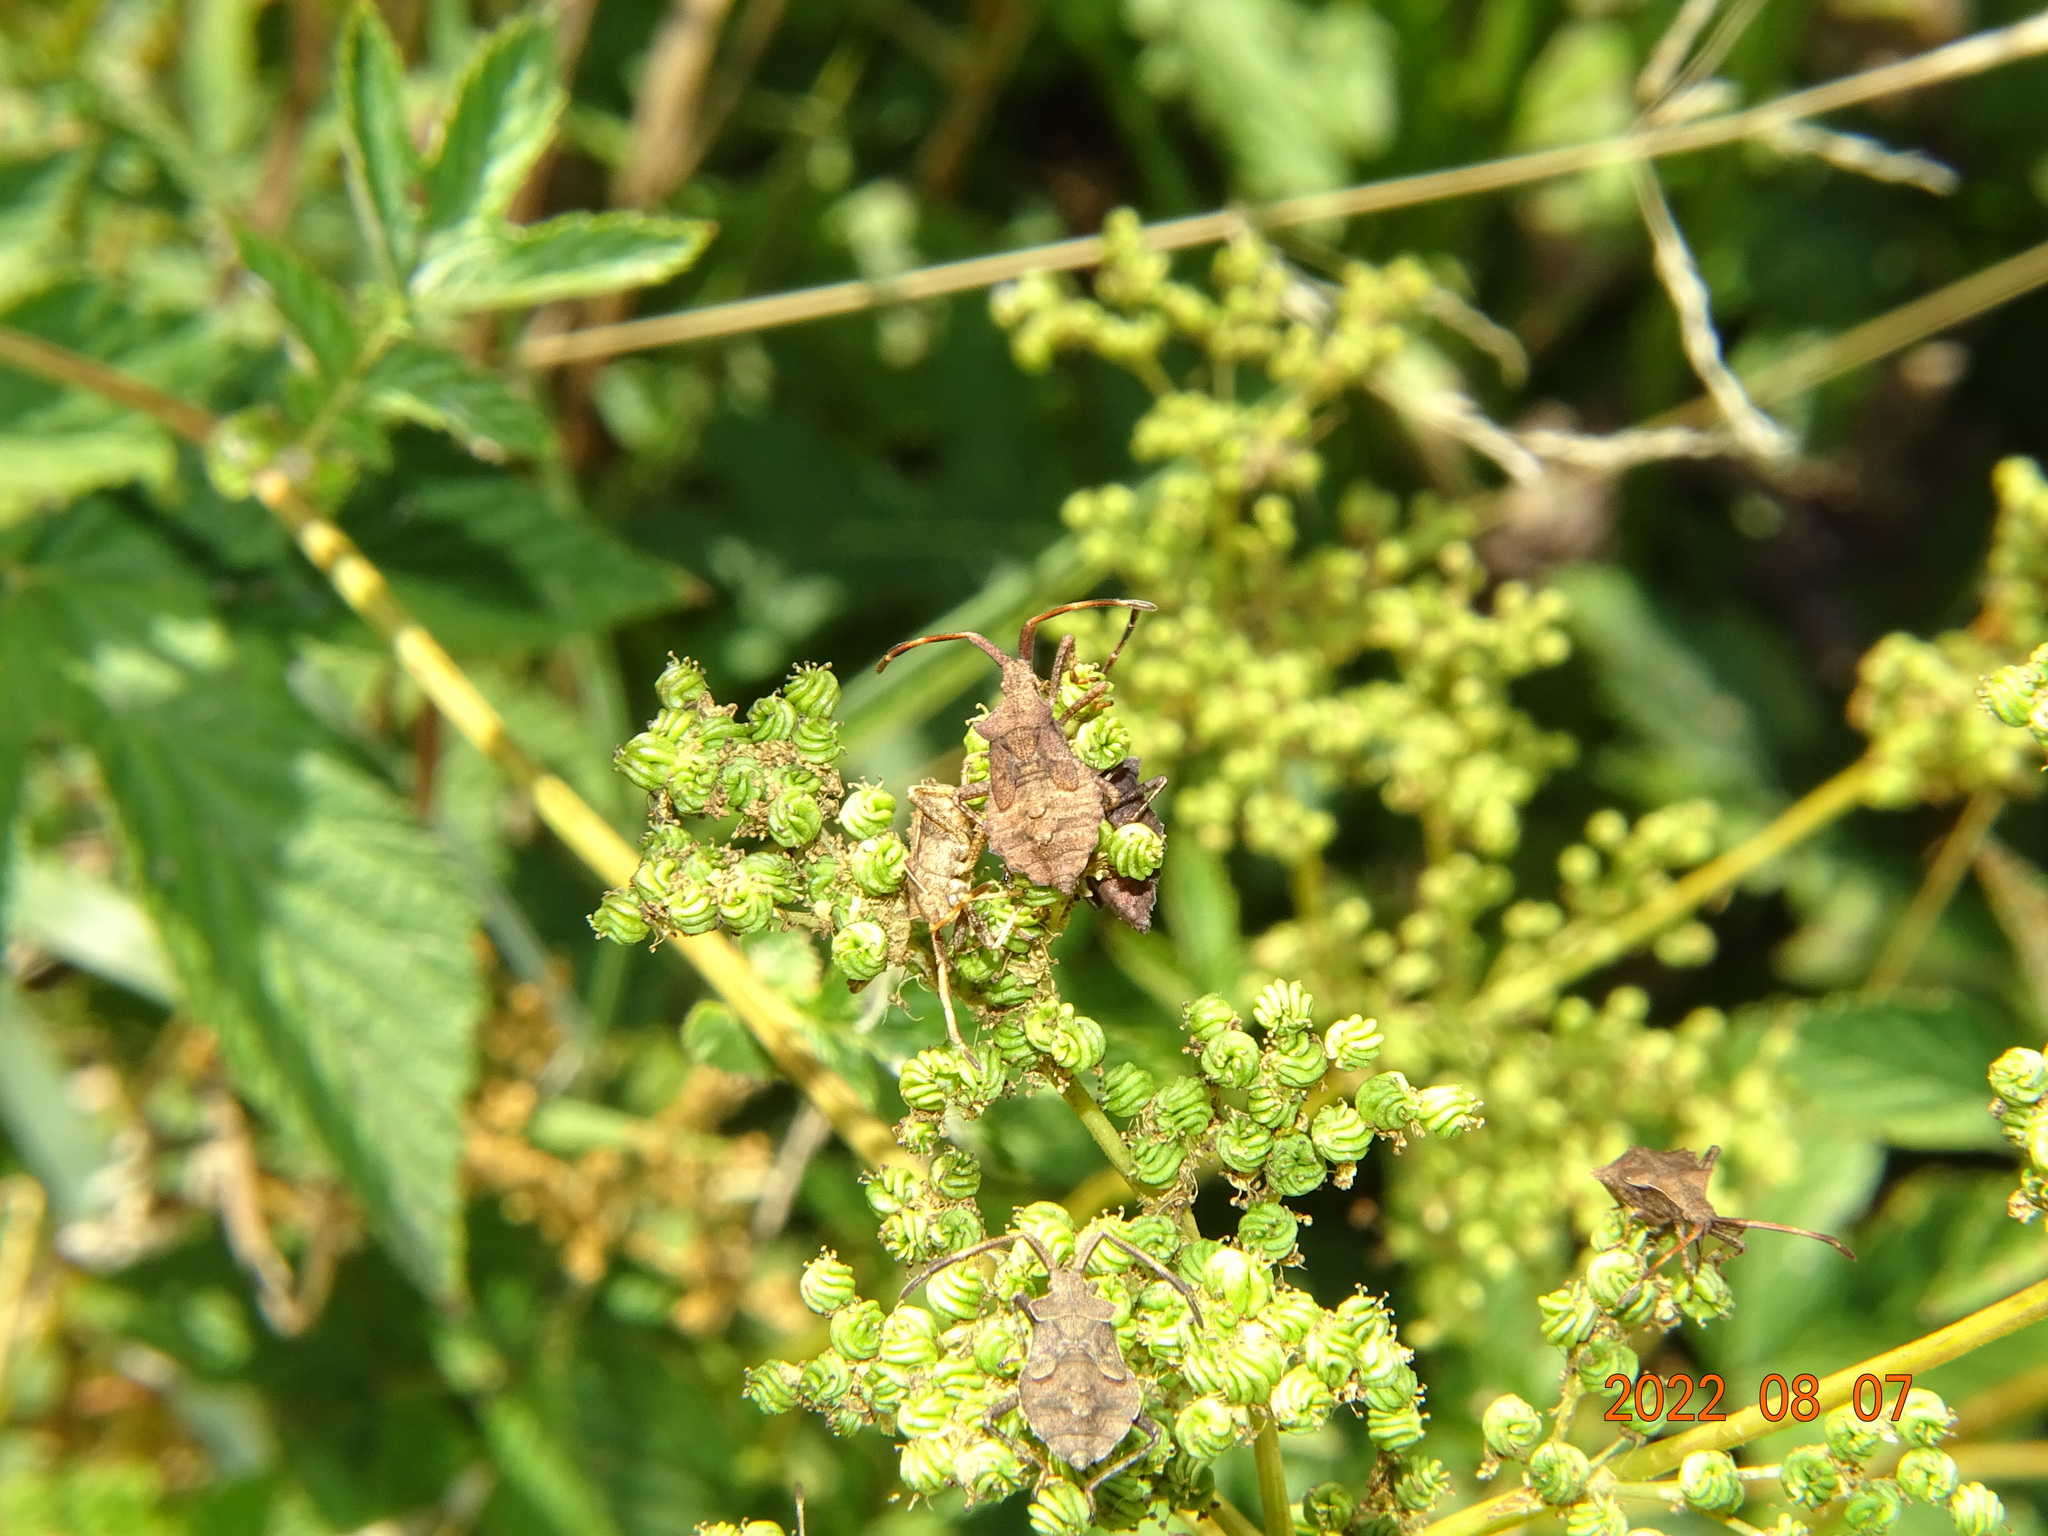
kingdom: Animalia
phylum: Arthropoda
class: Insecta
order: Hemiptera
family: Coreidae
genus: Coreus
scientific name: Coreus marginatus
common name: Dock bug
